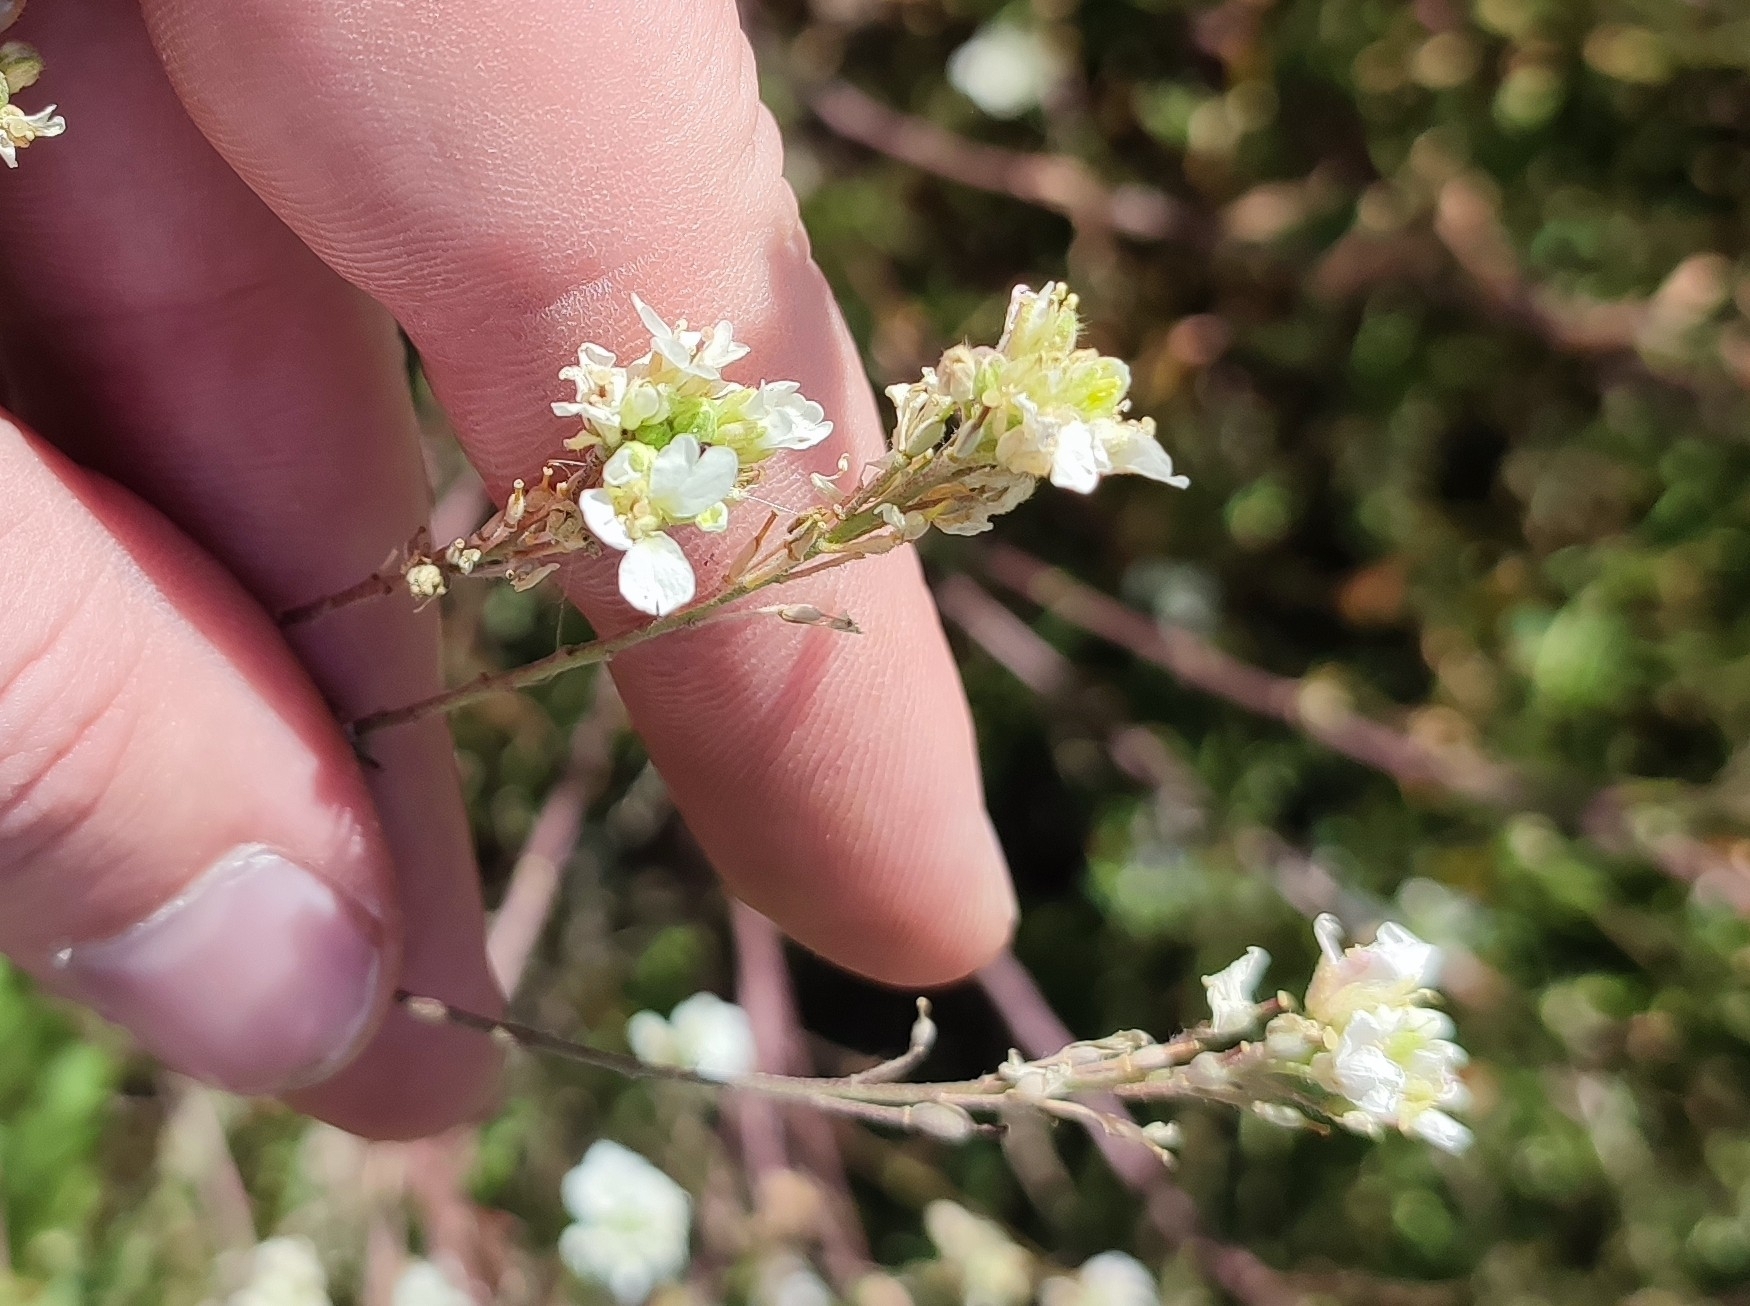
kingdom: Plantae
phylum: Tracheophyta
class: Magnoliopsida
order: Brassicales
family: Brassicaceae
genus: Berteroa
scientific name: Berteroa incana
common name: Hoary alison
